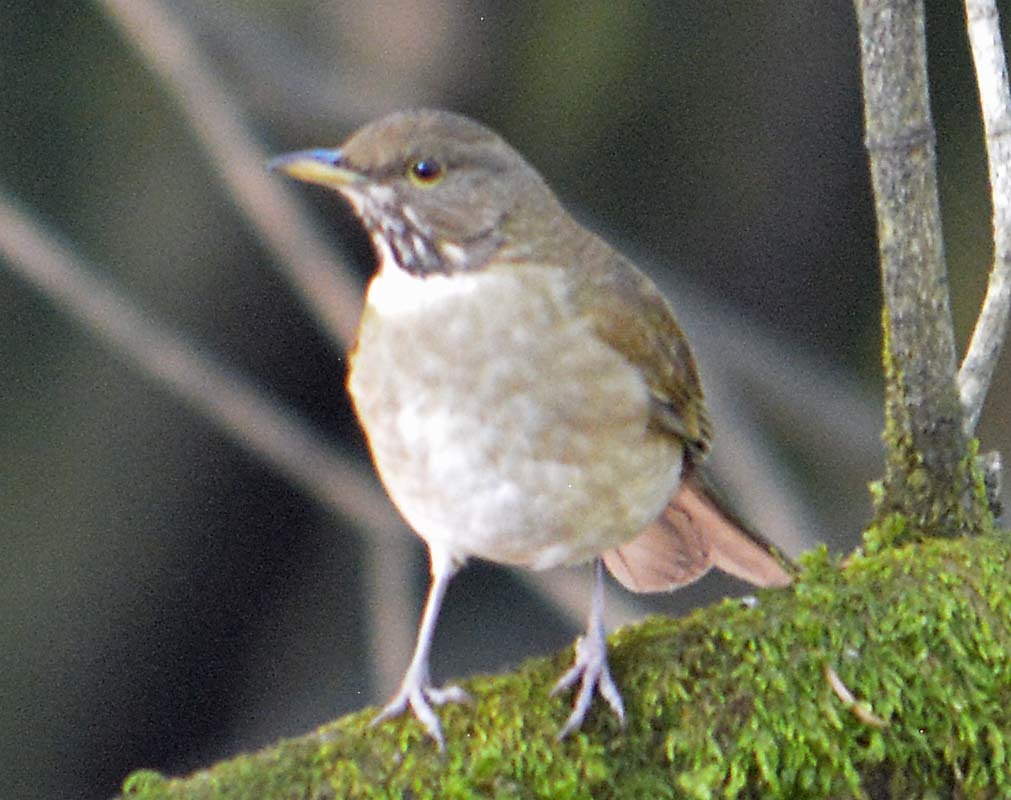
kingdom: Animalia
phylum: Chordata
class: Aves
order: Passeriformes
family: Turdidae
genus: Turdus
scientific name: Turdus assimilis
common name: White-throated thrush
